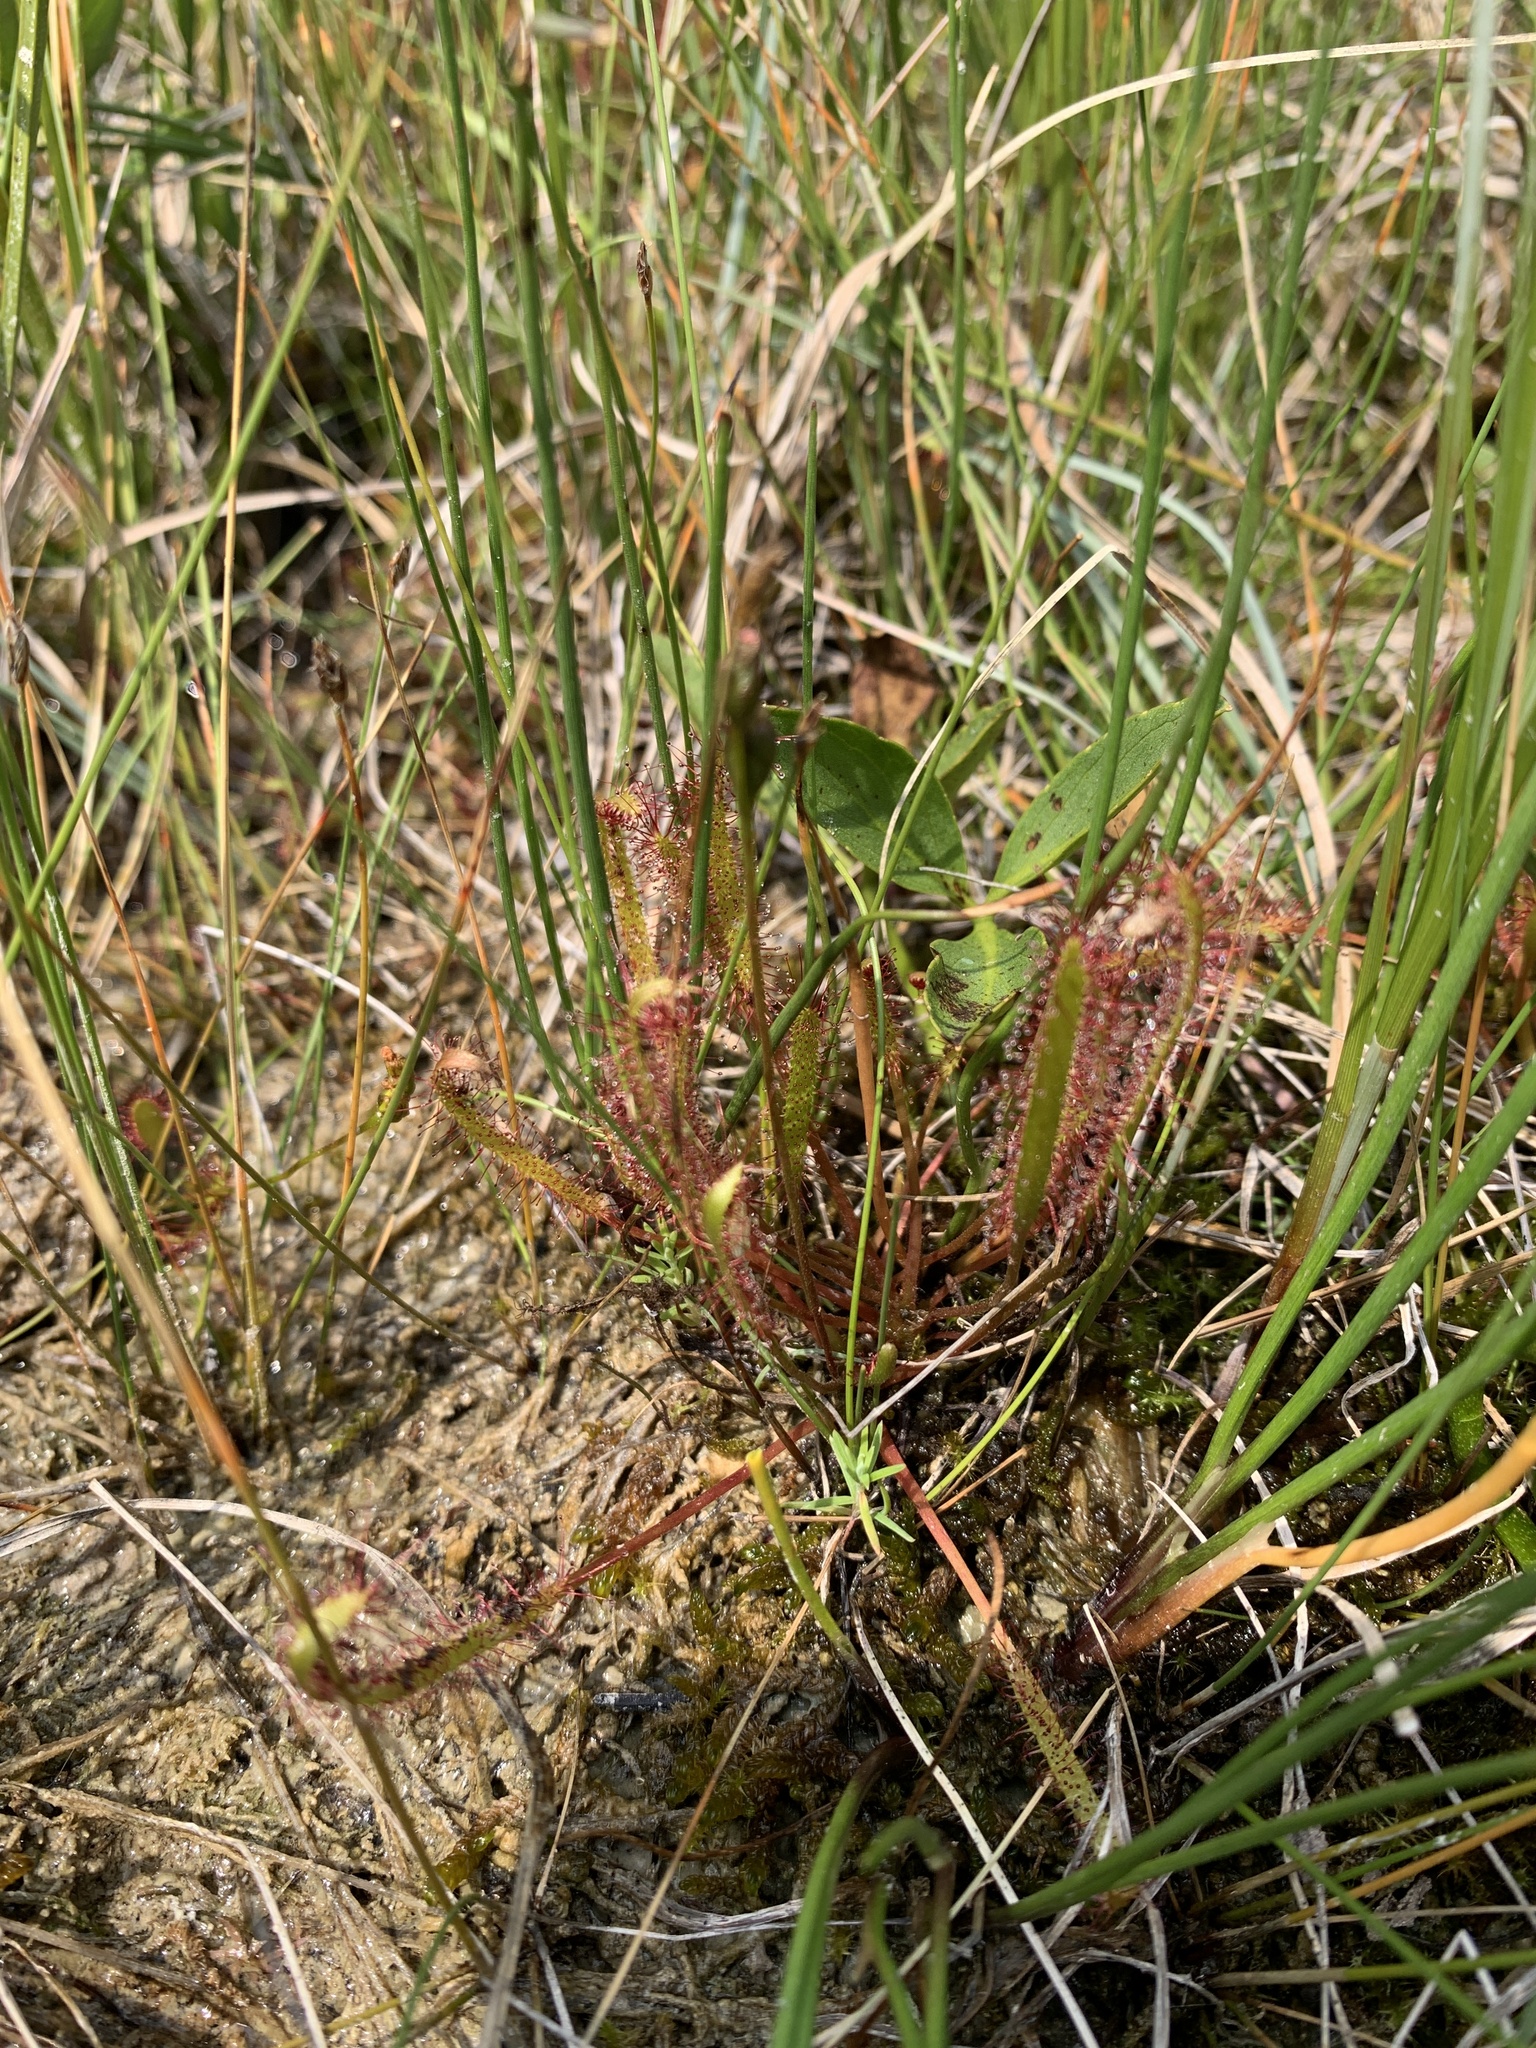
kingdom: Plantae
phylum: Tracheophyta
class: Magnoliopsida
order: Caryophyllales
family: Droseraceae
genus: Drosera
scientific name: Drosera linearis
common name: Linear-leaved sundew
